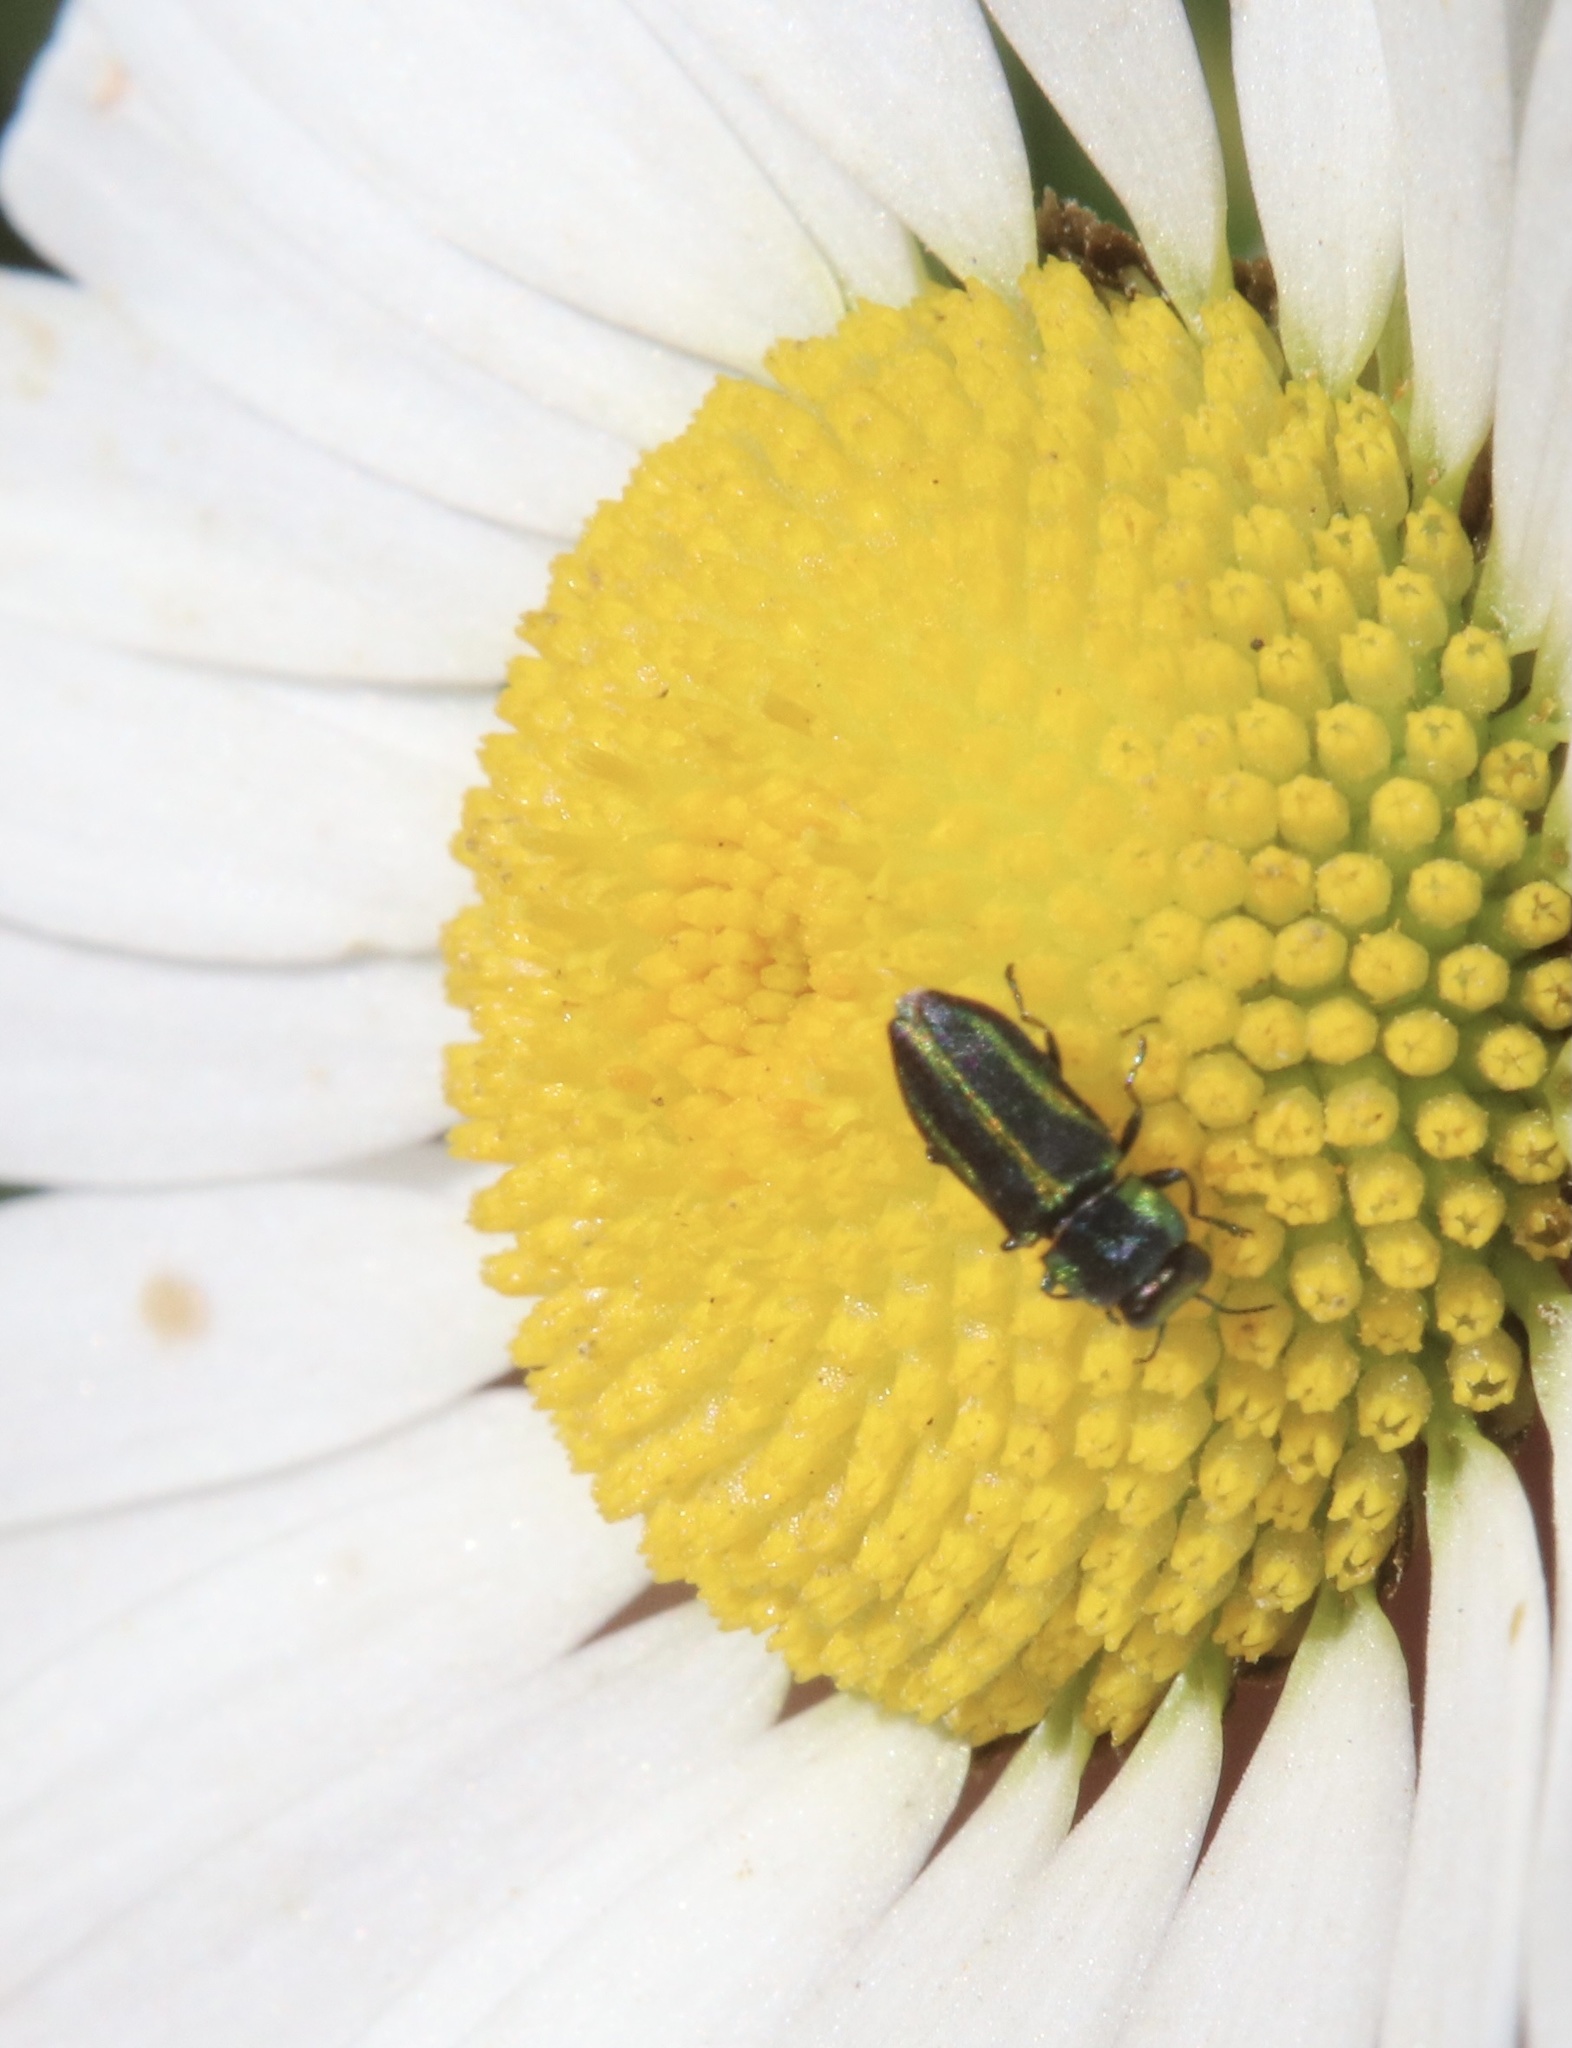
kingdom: Animalia
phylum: Arthropoda
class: Insecta
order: Coleoptera
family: Buprestidae
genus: Bilyaxia
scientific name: Bilyaxia cordillerae
